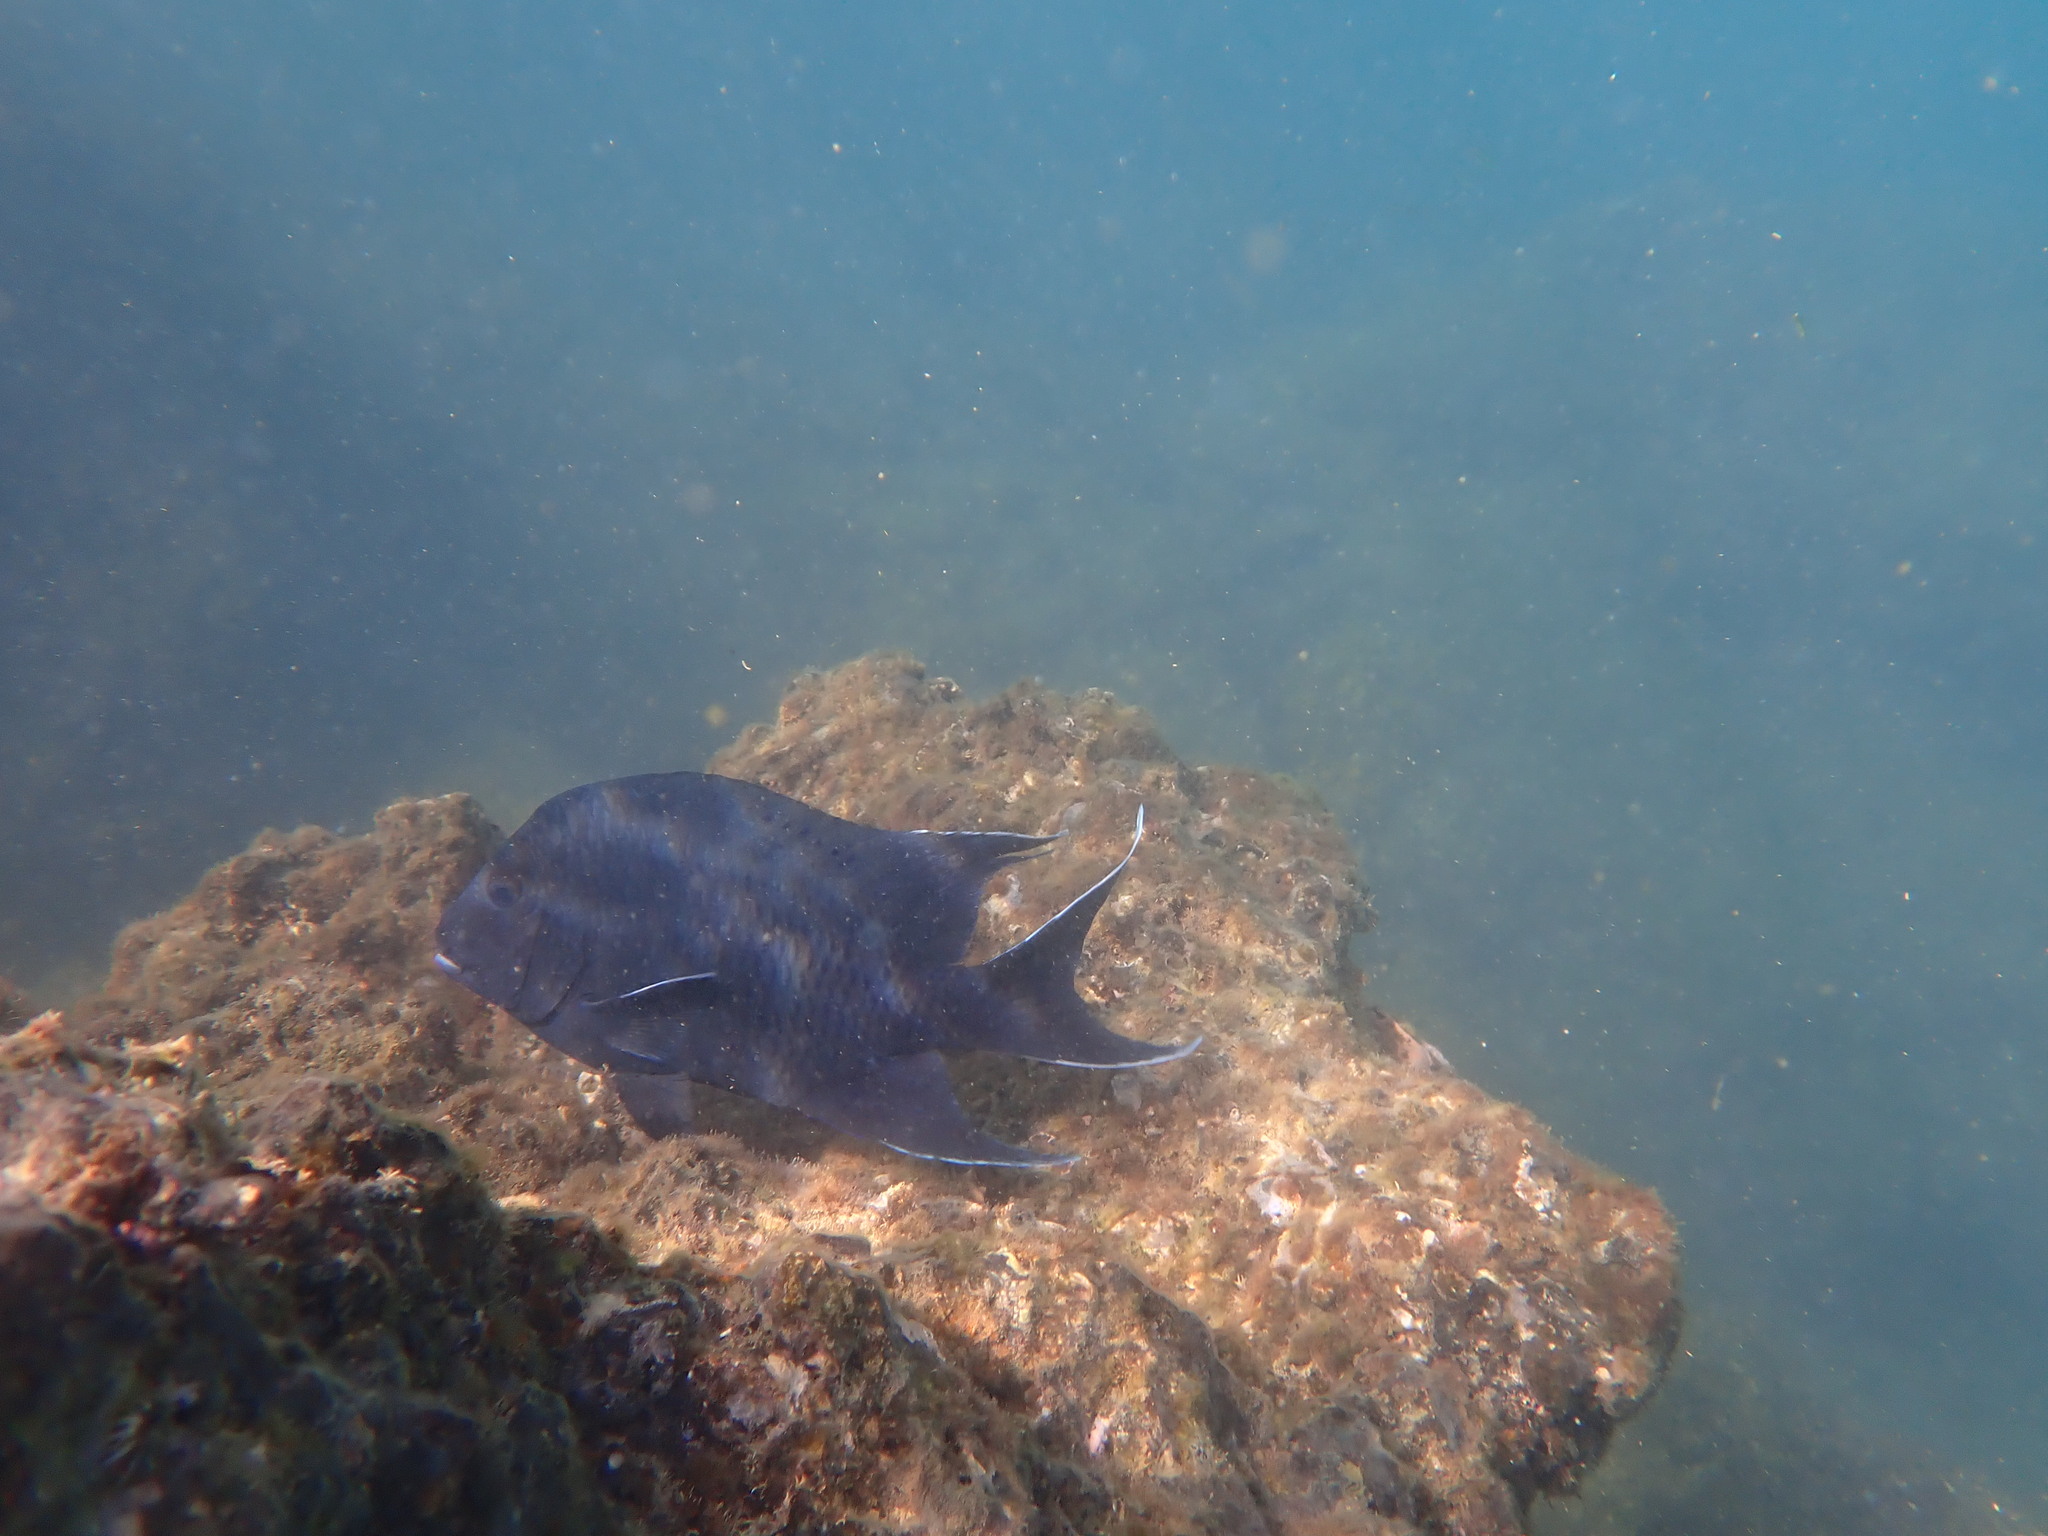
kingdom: Animalia
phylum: Chordata
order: Perciformes
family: Pomacentridae
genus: Microspathodon
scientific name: Microspathodon dorsalis
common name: Giant damselfish
